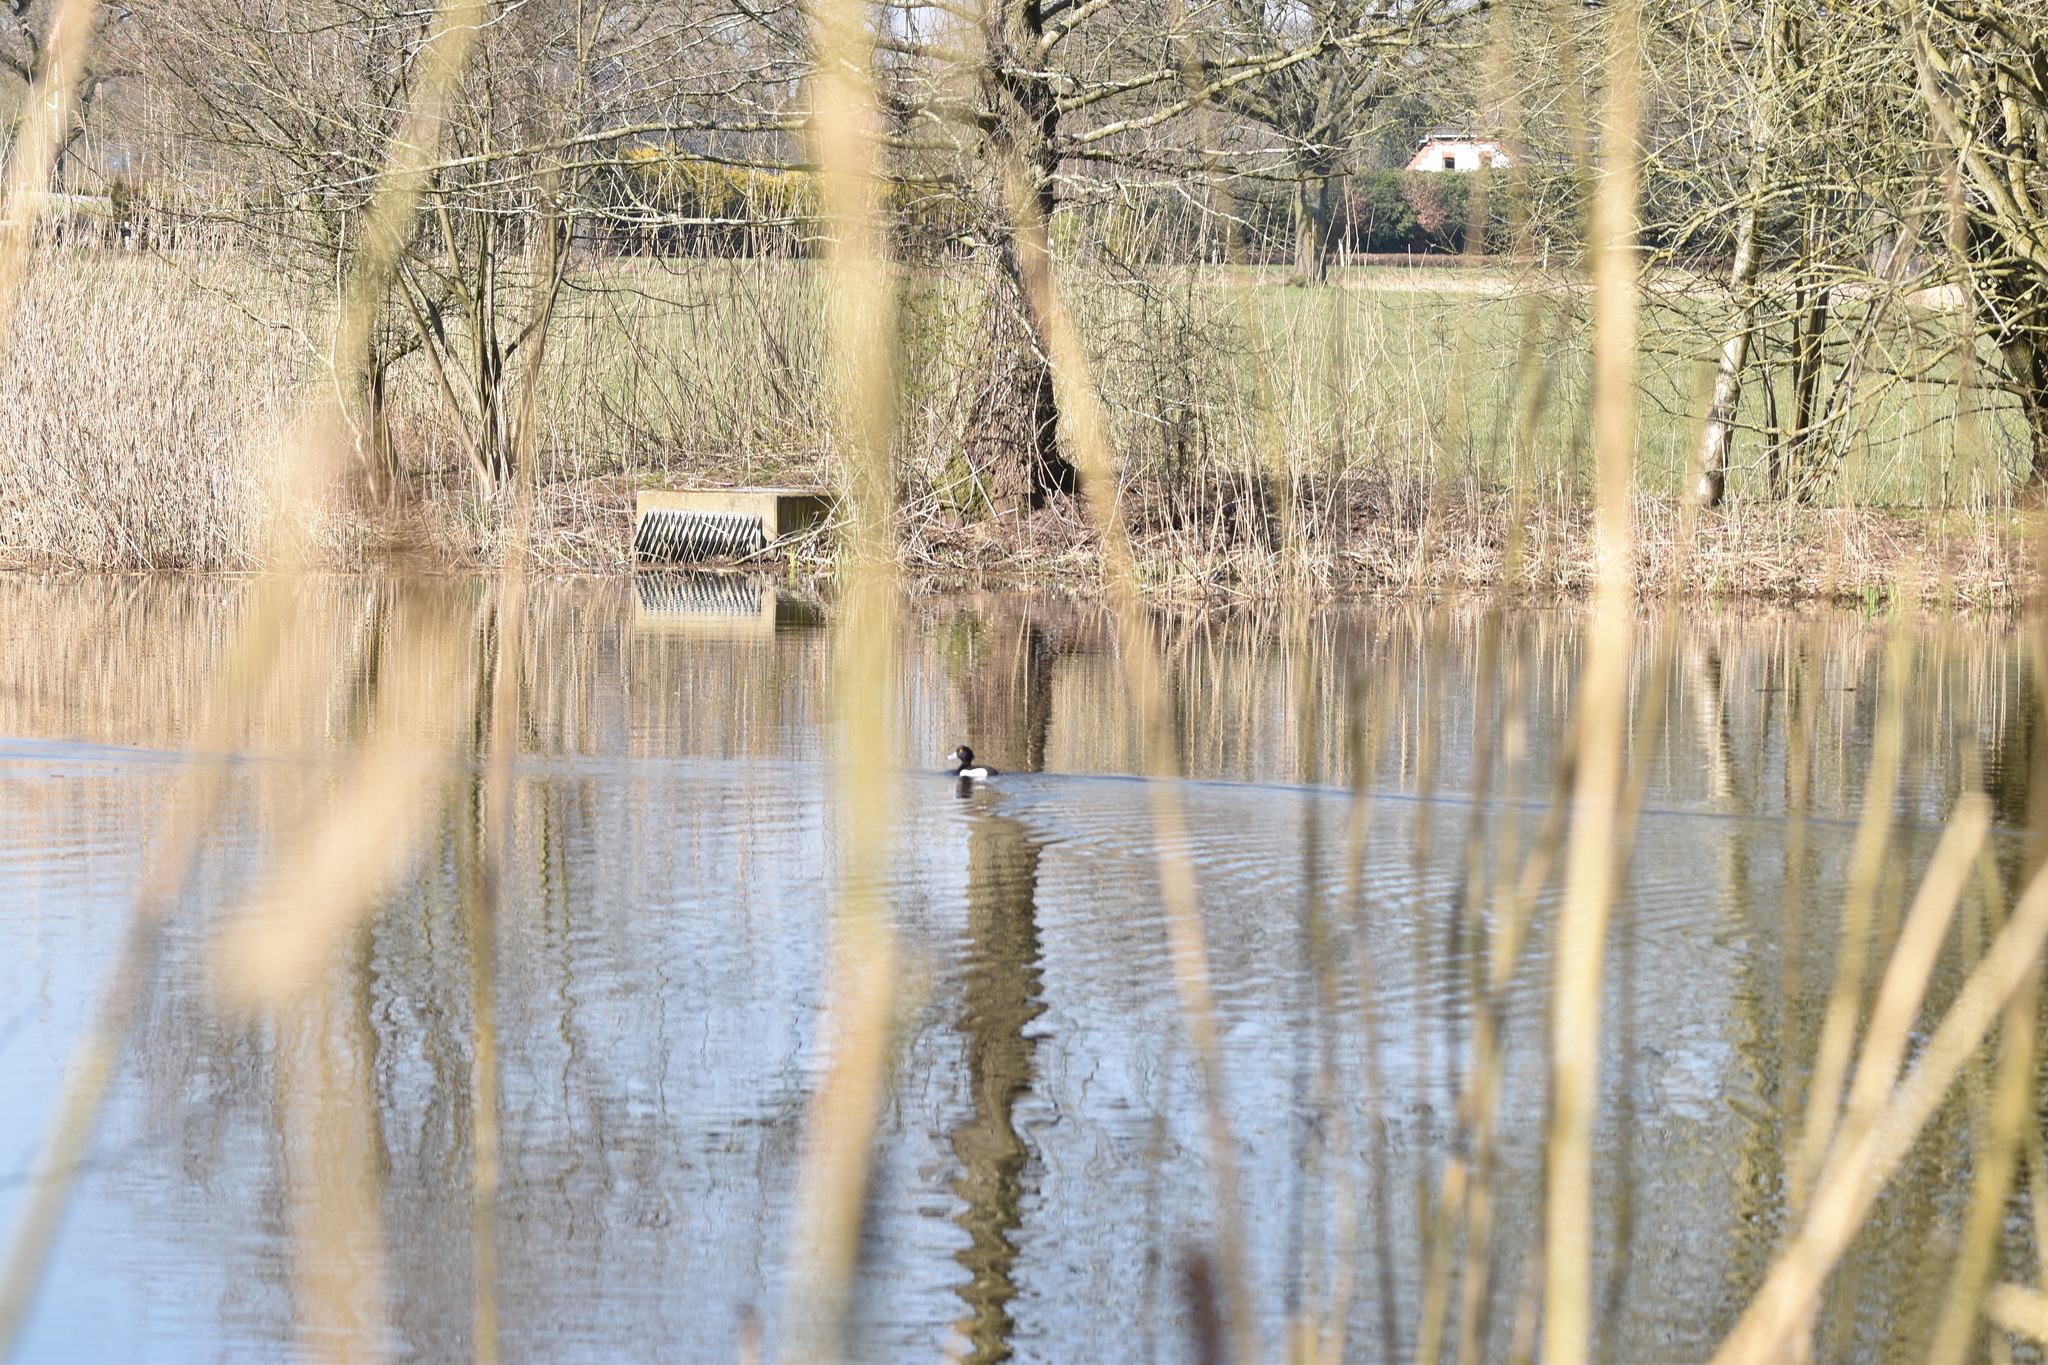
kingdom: Animalia
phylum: Chordata
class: Aves
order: Anseriformes
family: Anatidae
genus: Aythya
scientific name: Aythya fuligula
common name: Tufted duck
